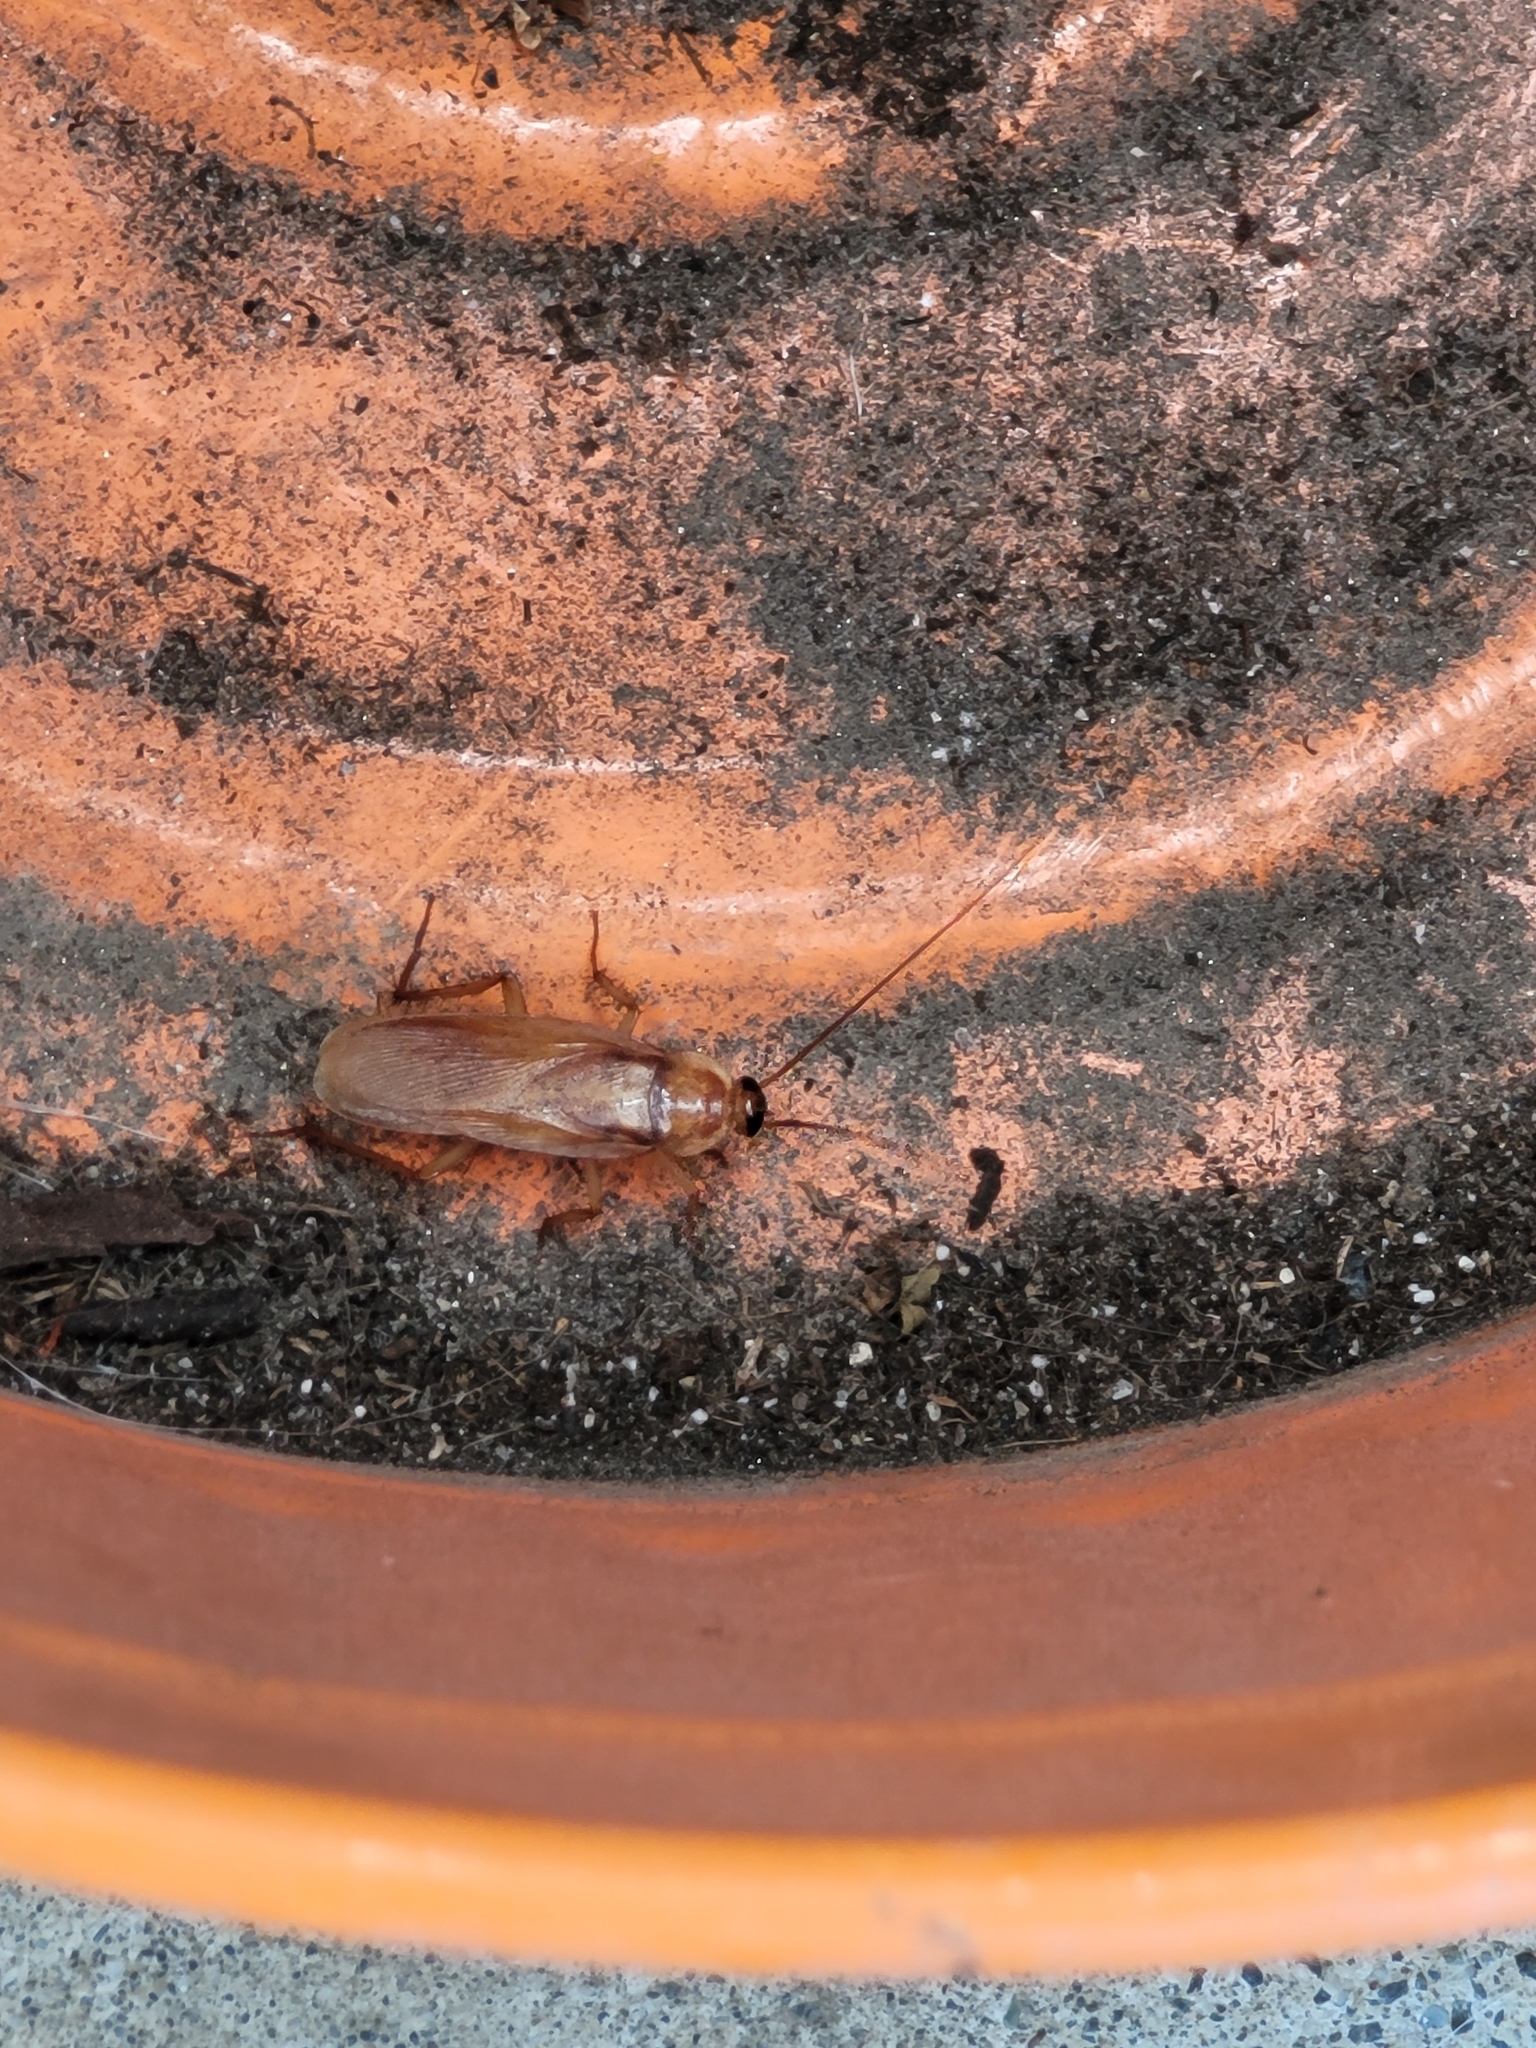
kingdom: Animalia
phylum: Arthropoda
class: Insecta
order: Blattodea
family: Blattidae
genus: Periplaneta
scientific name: Periplaneta lateralis
